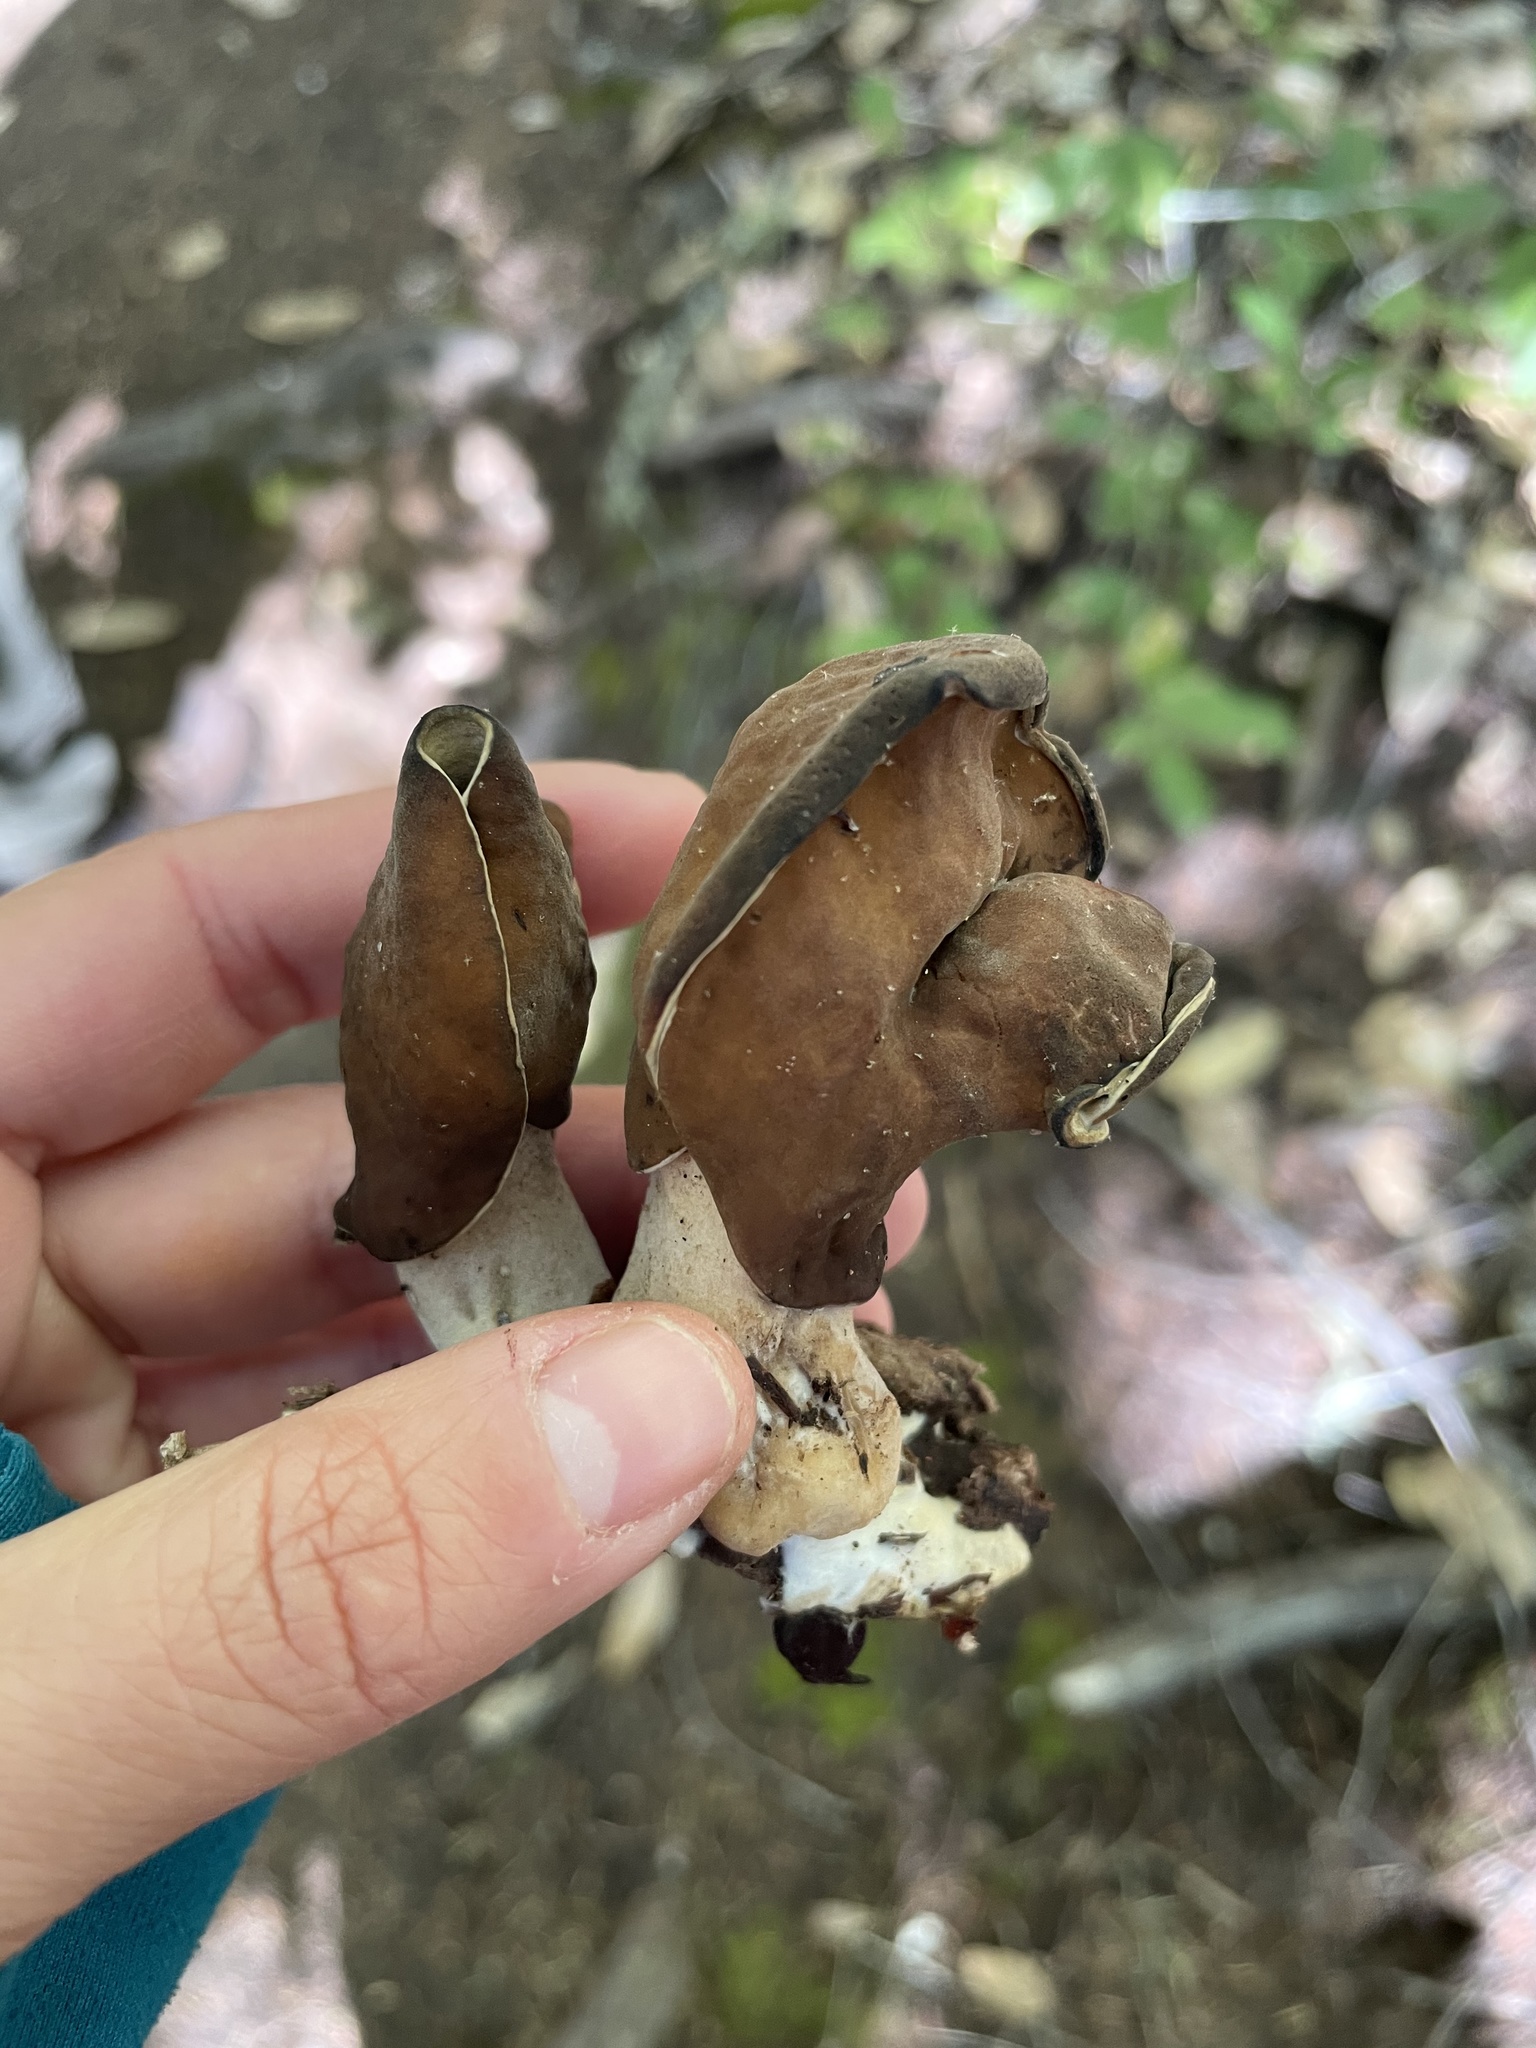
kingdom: Fungi
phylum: Ascomycota
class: Pezizomycetes
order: Pezizales
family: Discinaceae
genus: Gyromitra
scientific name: Gyromitra infula
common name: Pouched false morel
